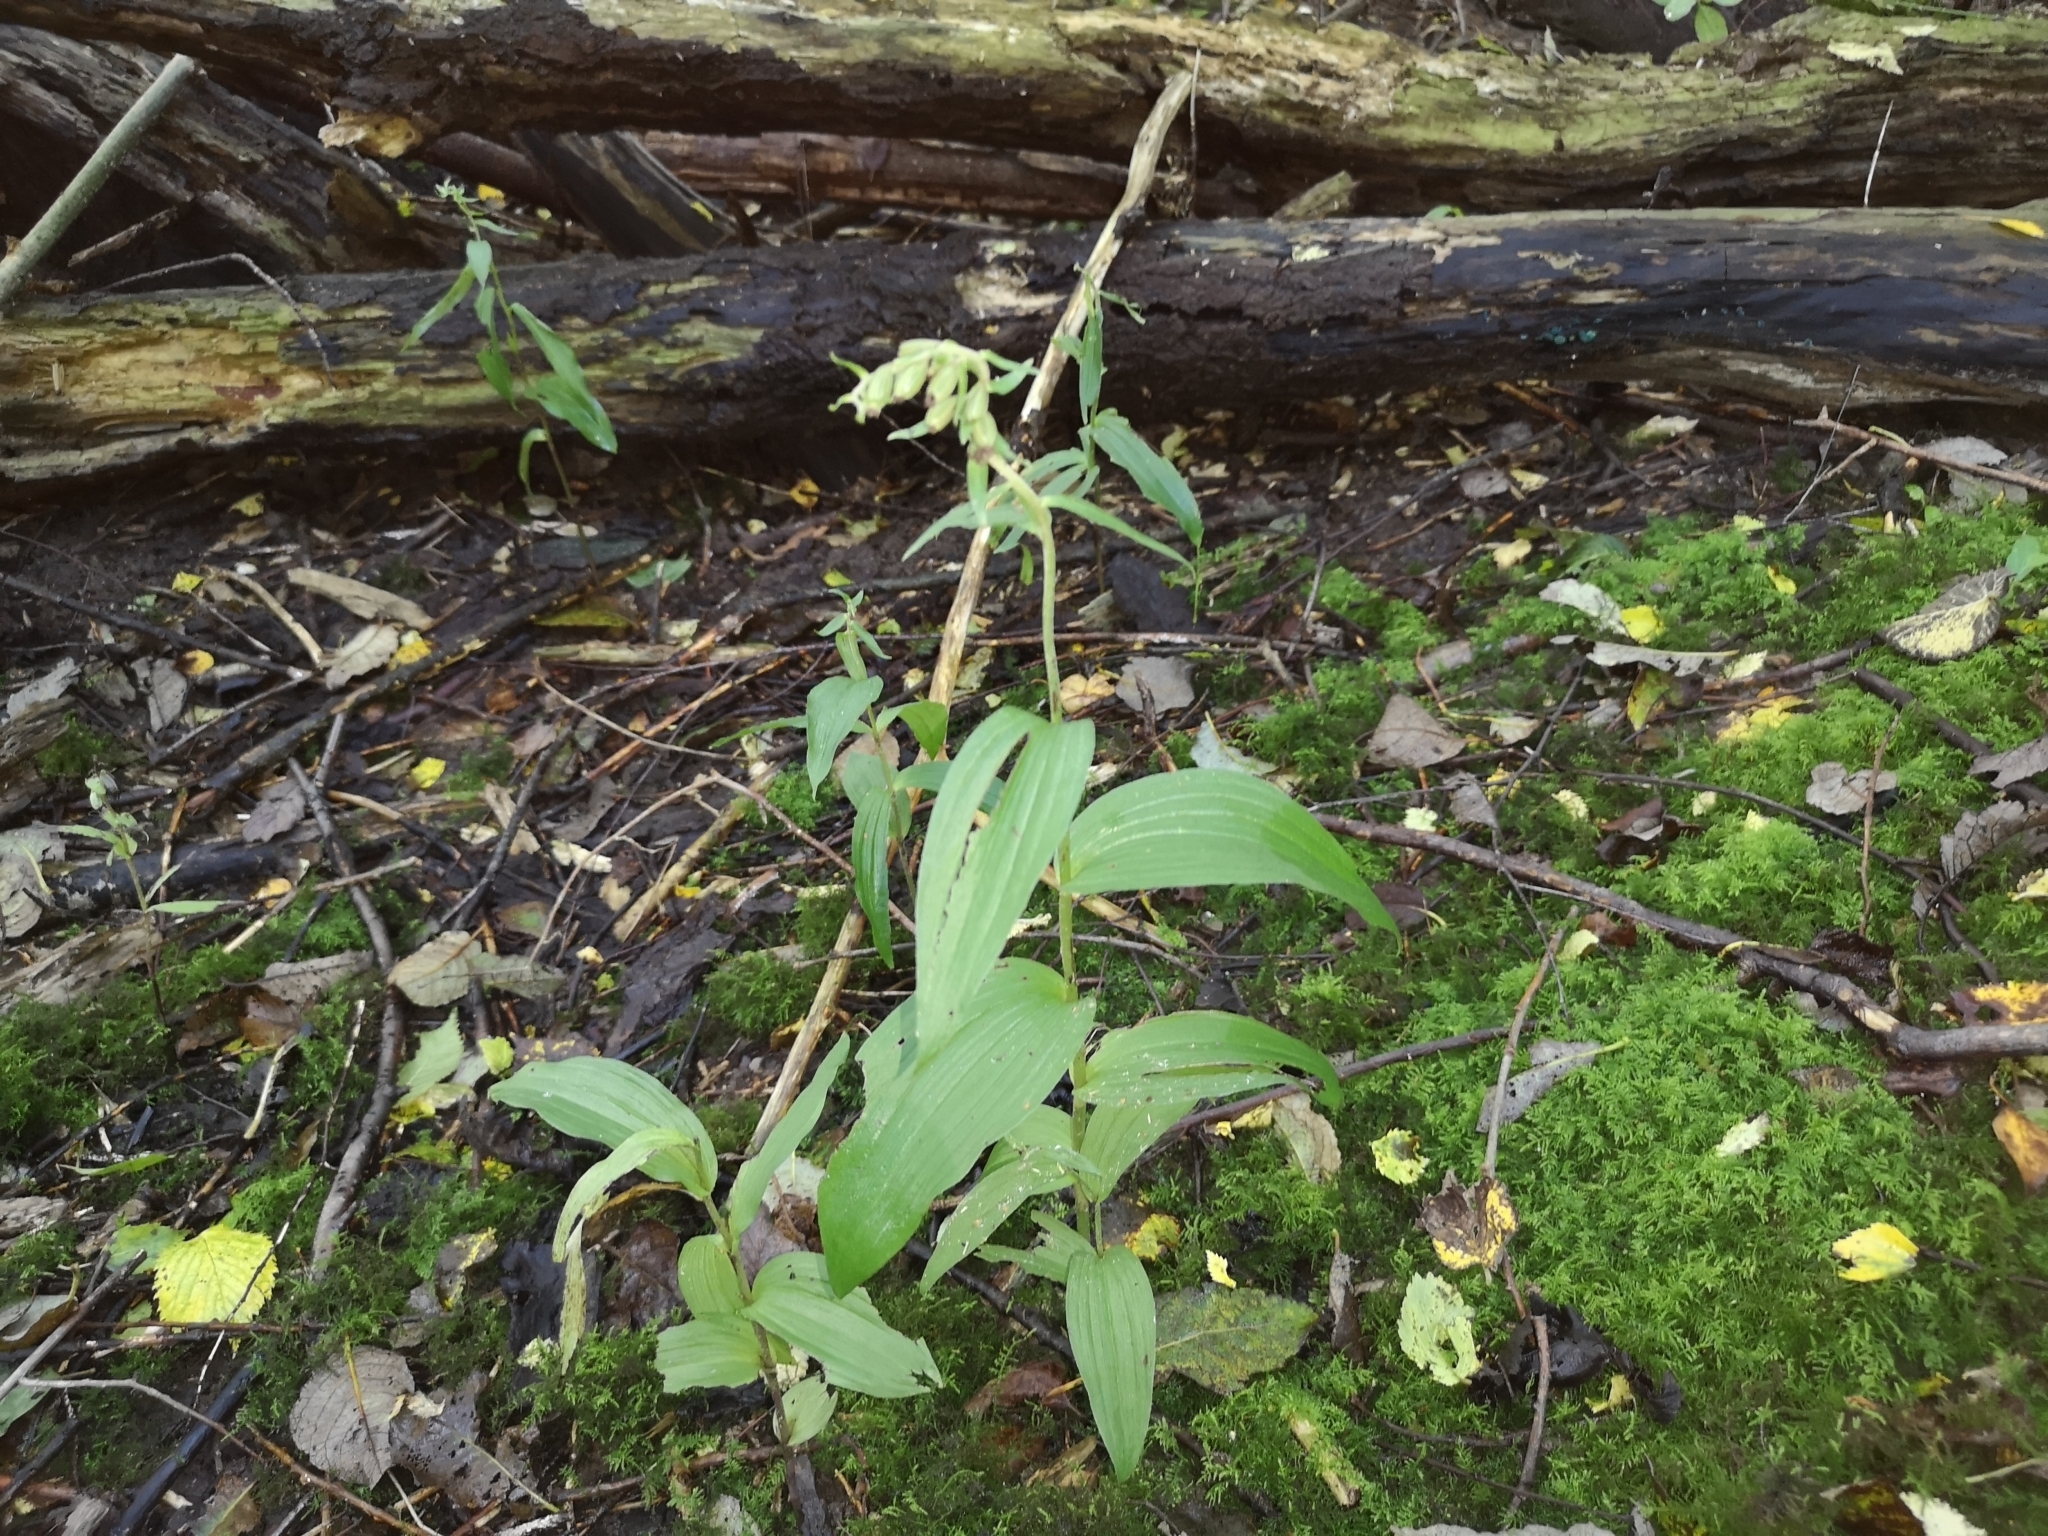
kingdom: Plantae
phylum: Tracheophyta
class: Liliopsida
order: Asparagales
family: Orchidaceae
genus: Epipactis
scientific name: Epipactis helleborine
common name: Broad-leaved helleborine
